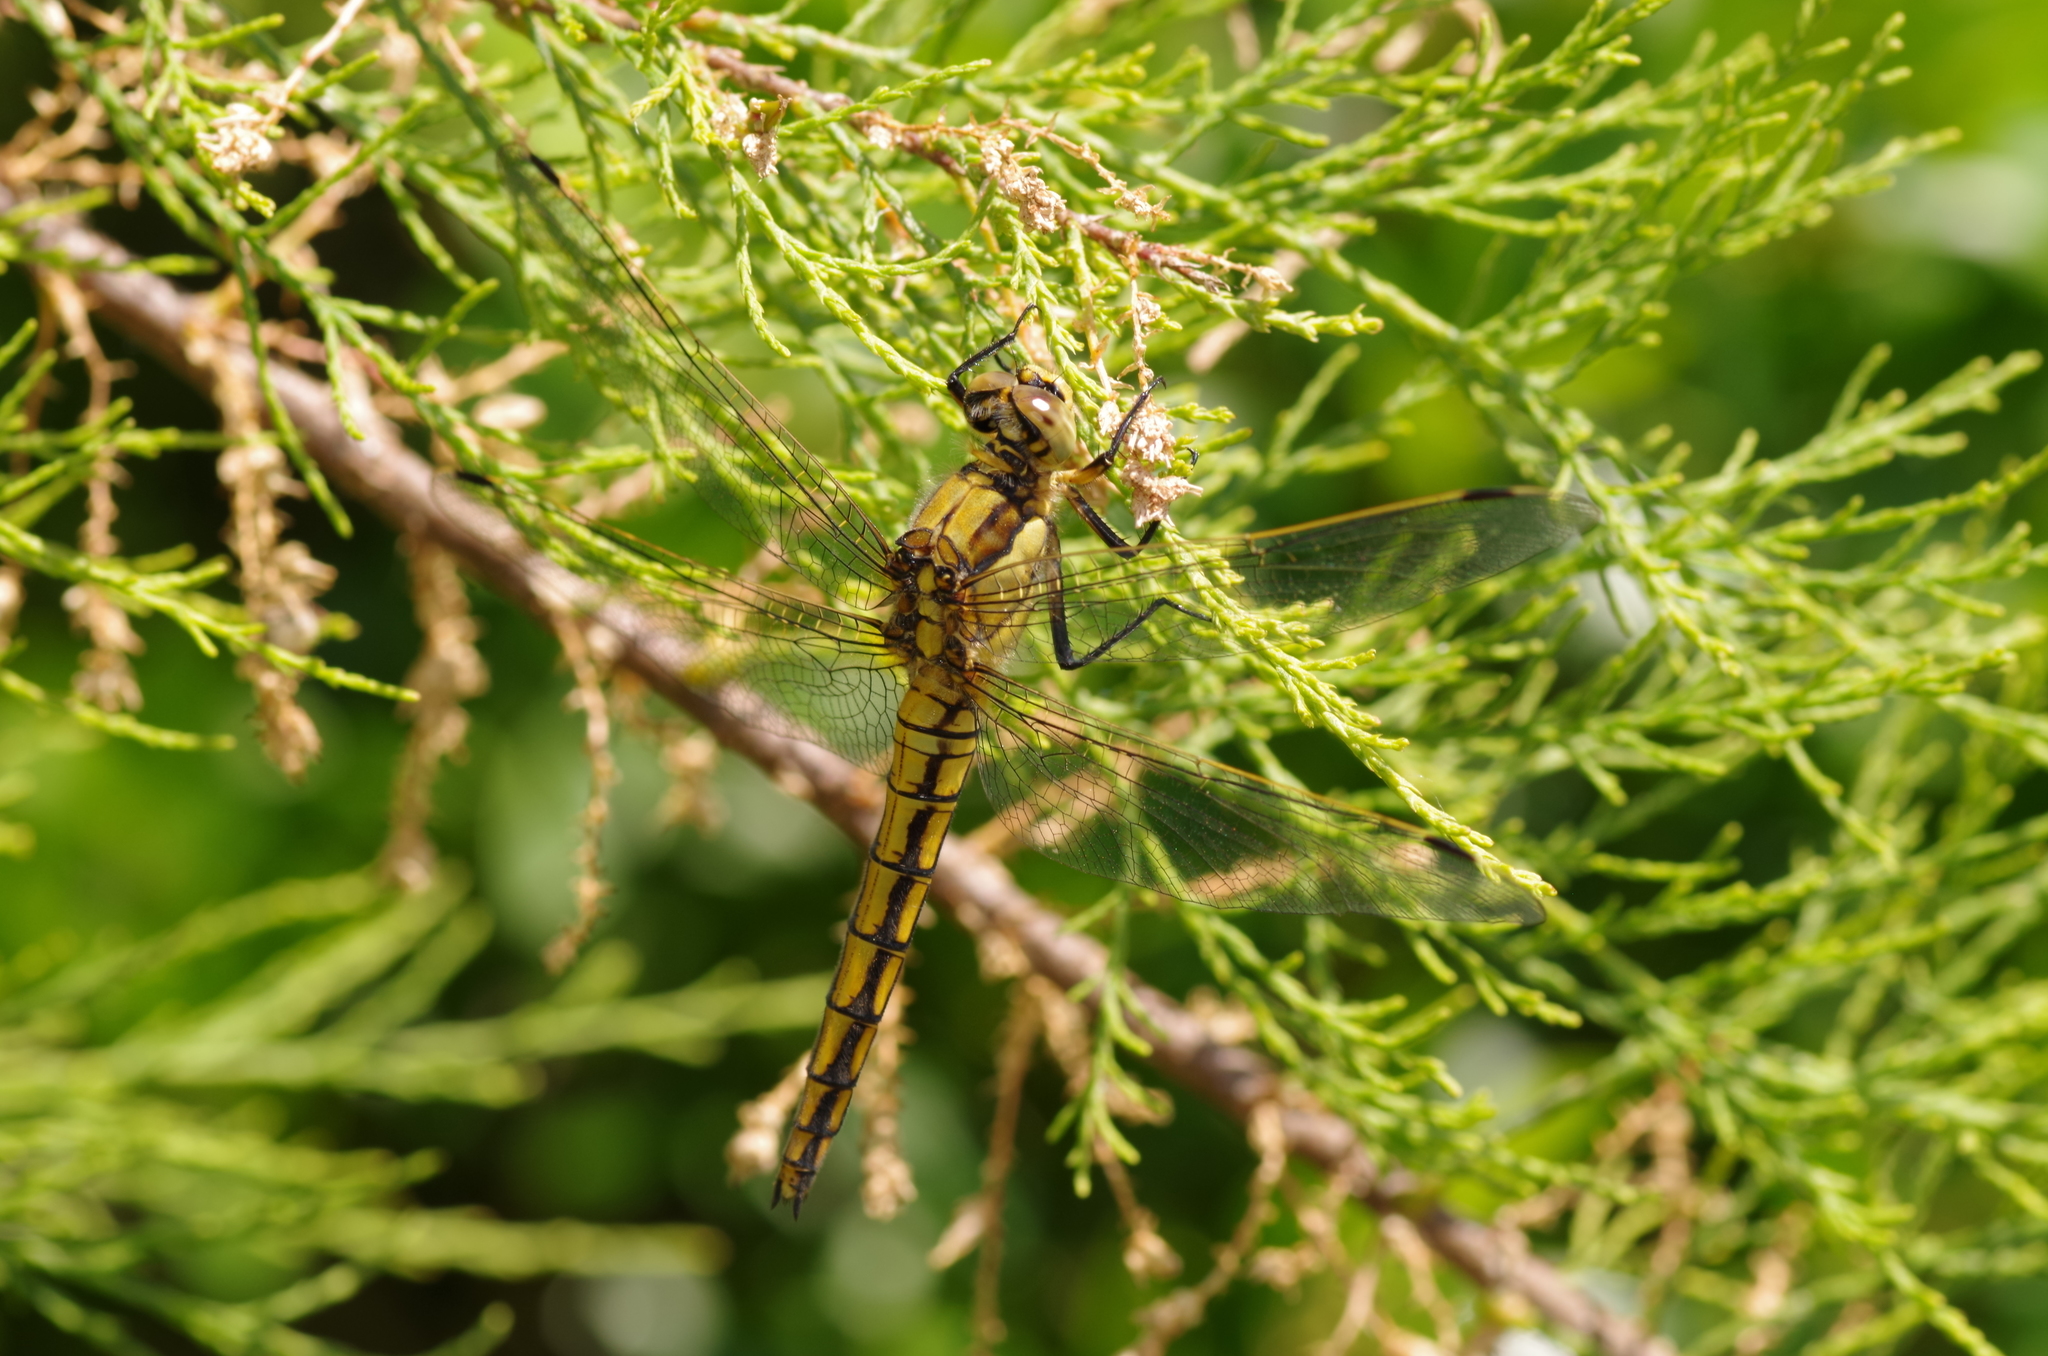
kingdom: Animalia
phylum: Arthropoda
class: Insecta
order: Odonata
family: Libellulidae
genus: Orthetrum
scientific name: Orthetrum cancellatum
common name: Black-tailed skimmer
